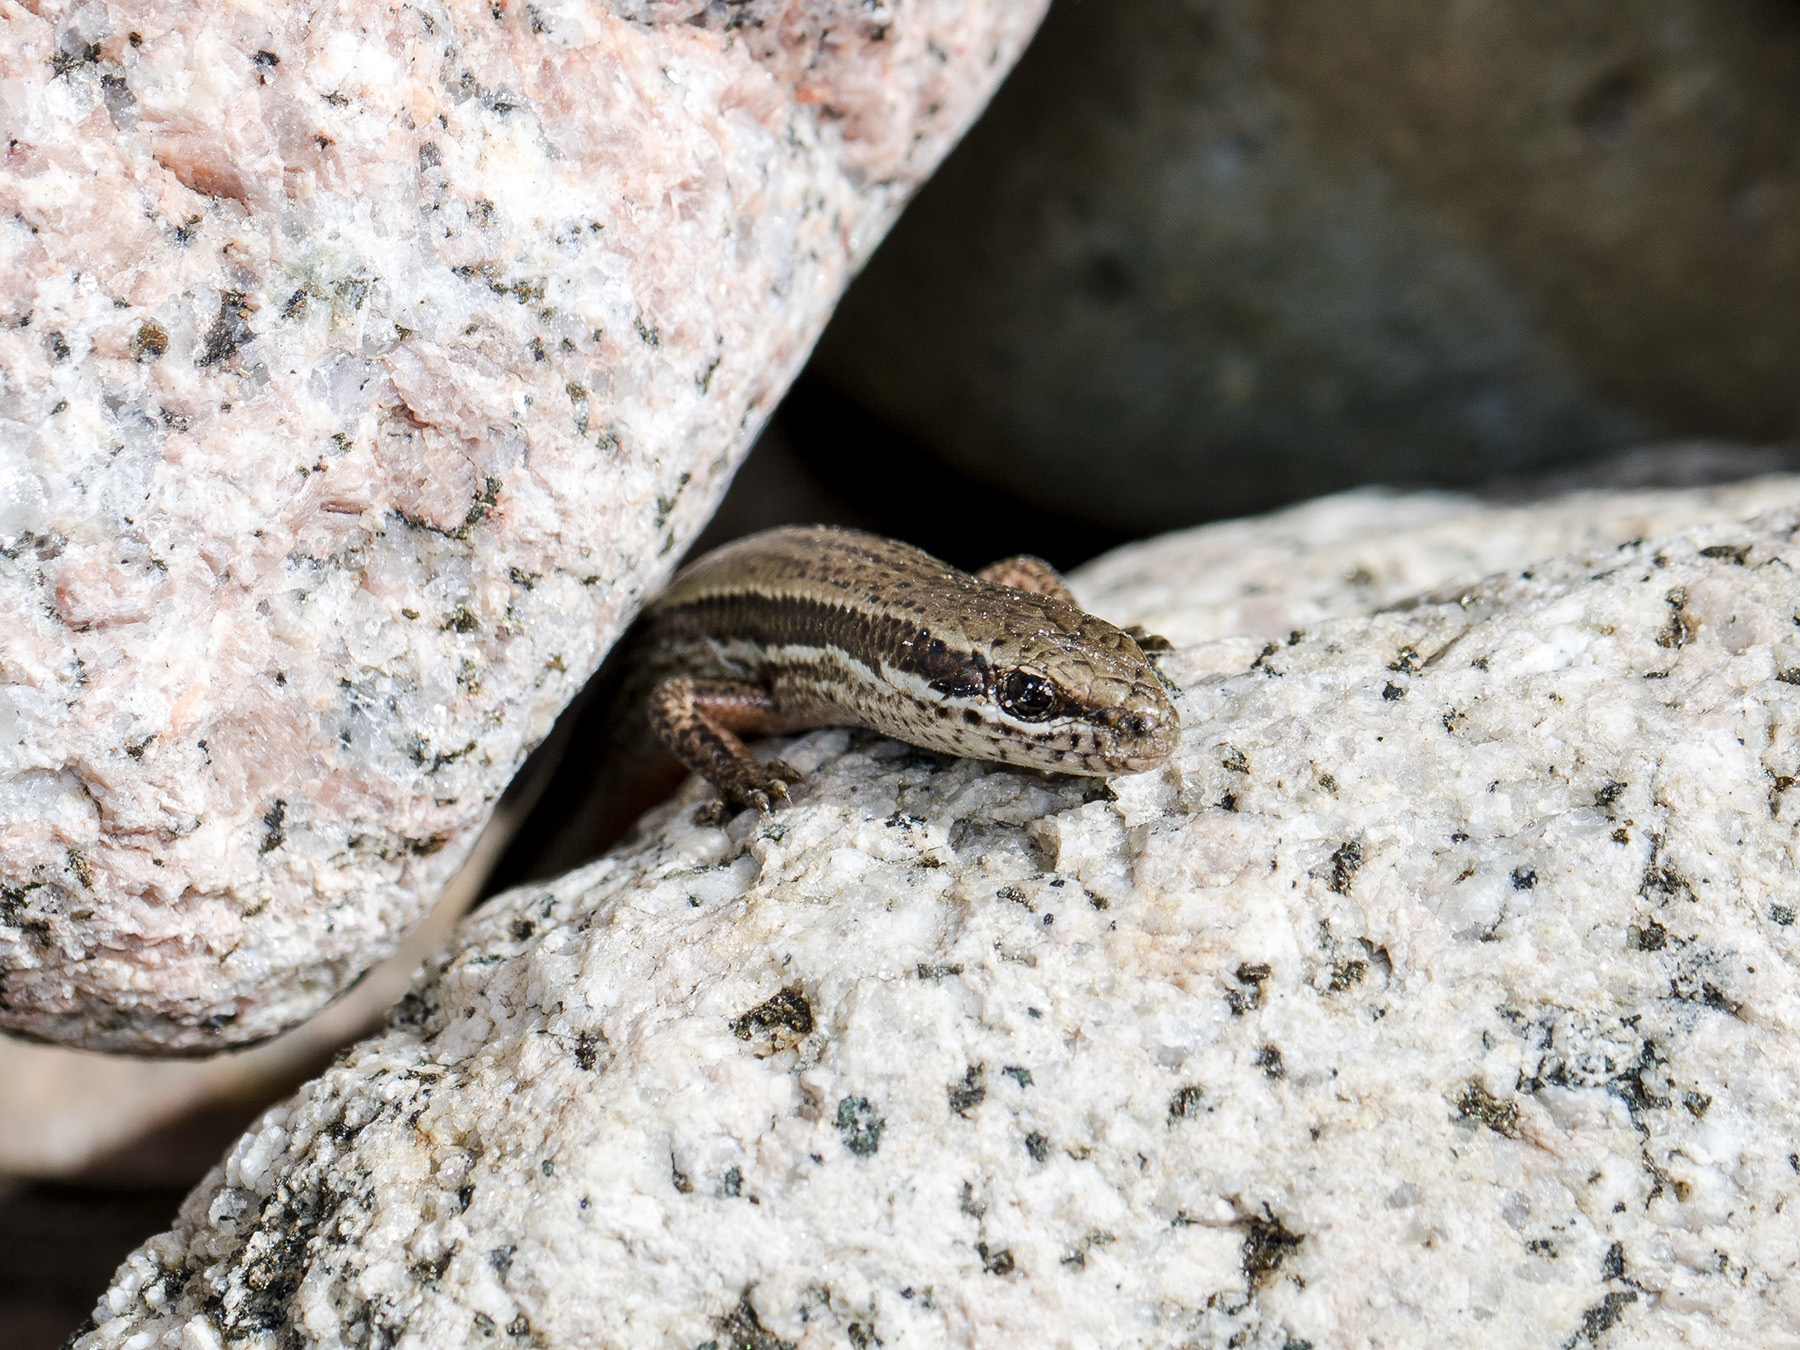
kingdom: Animalia
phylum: Chordata
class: Squamata
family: Scincidae
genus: Asymblepharus
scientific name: Asymblepharus alaicus
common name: Alai ground skink
